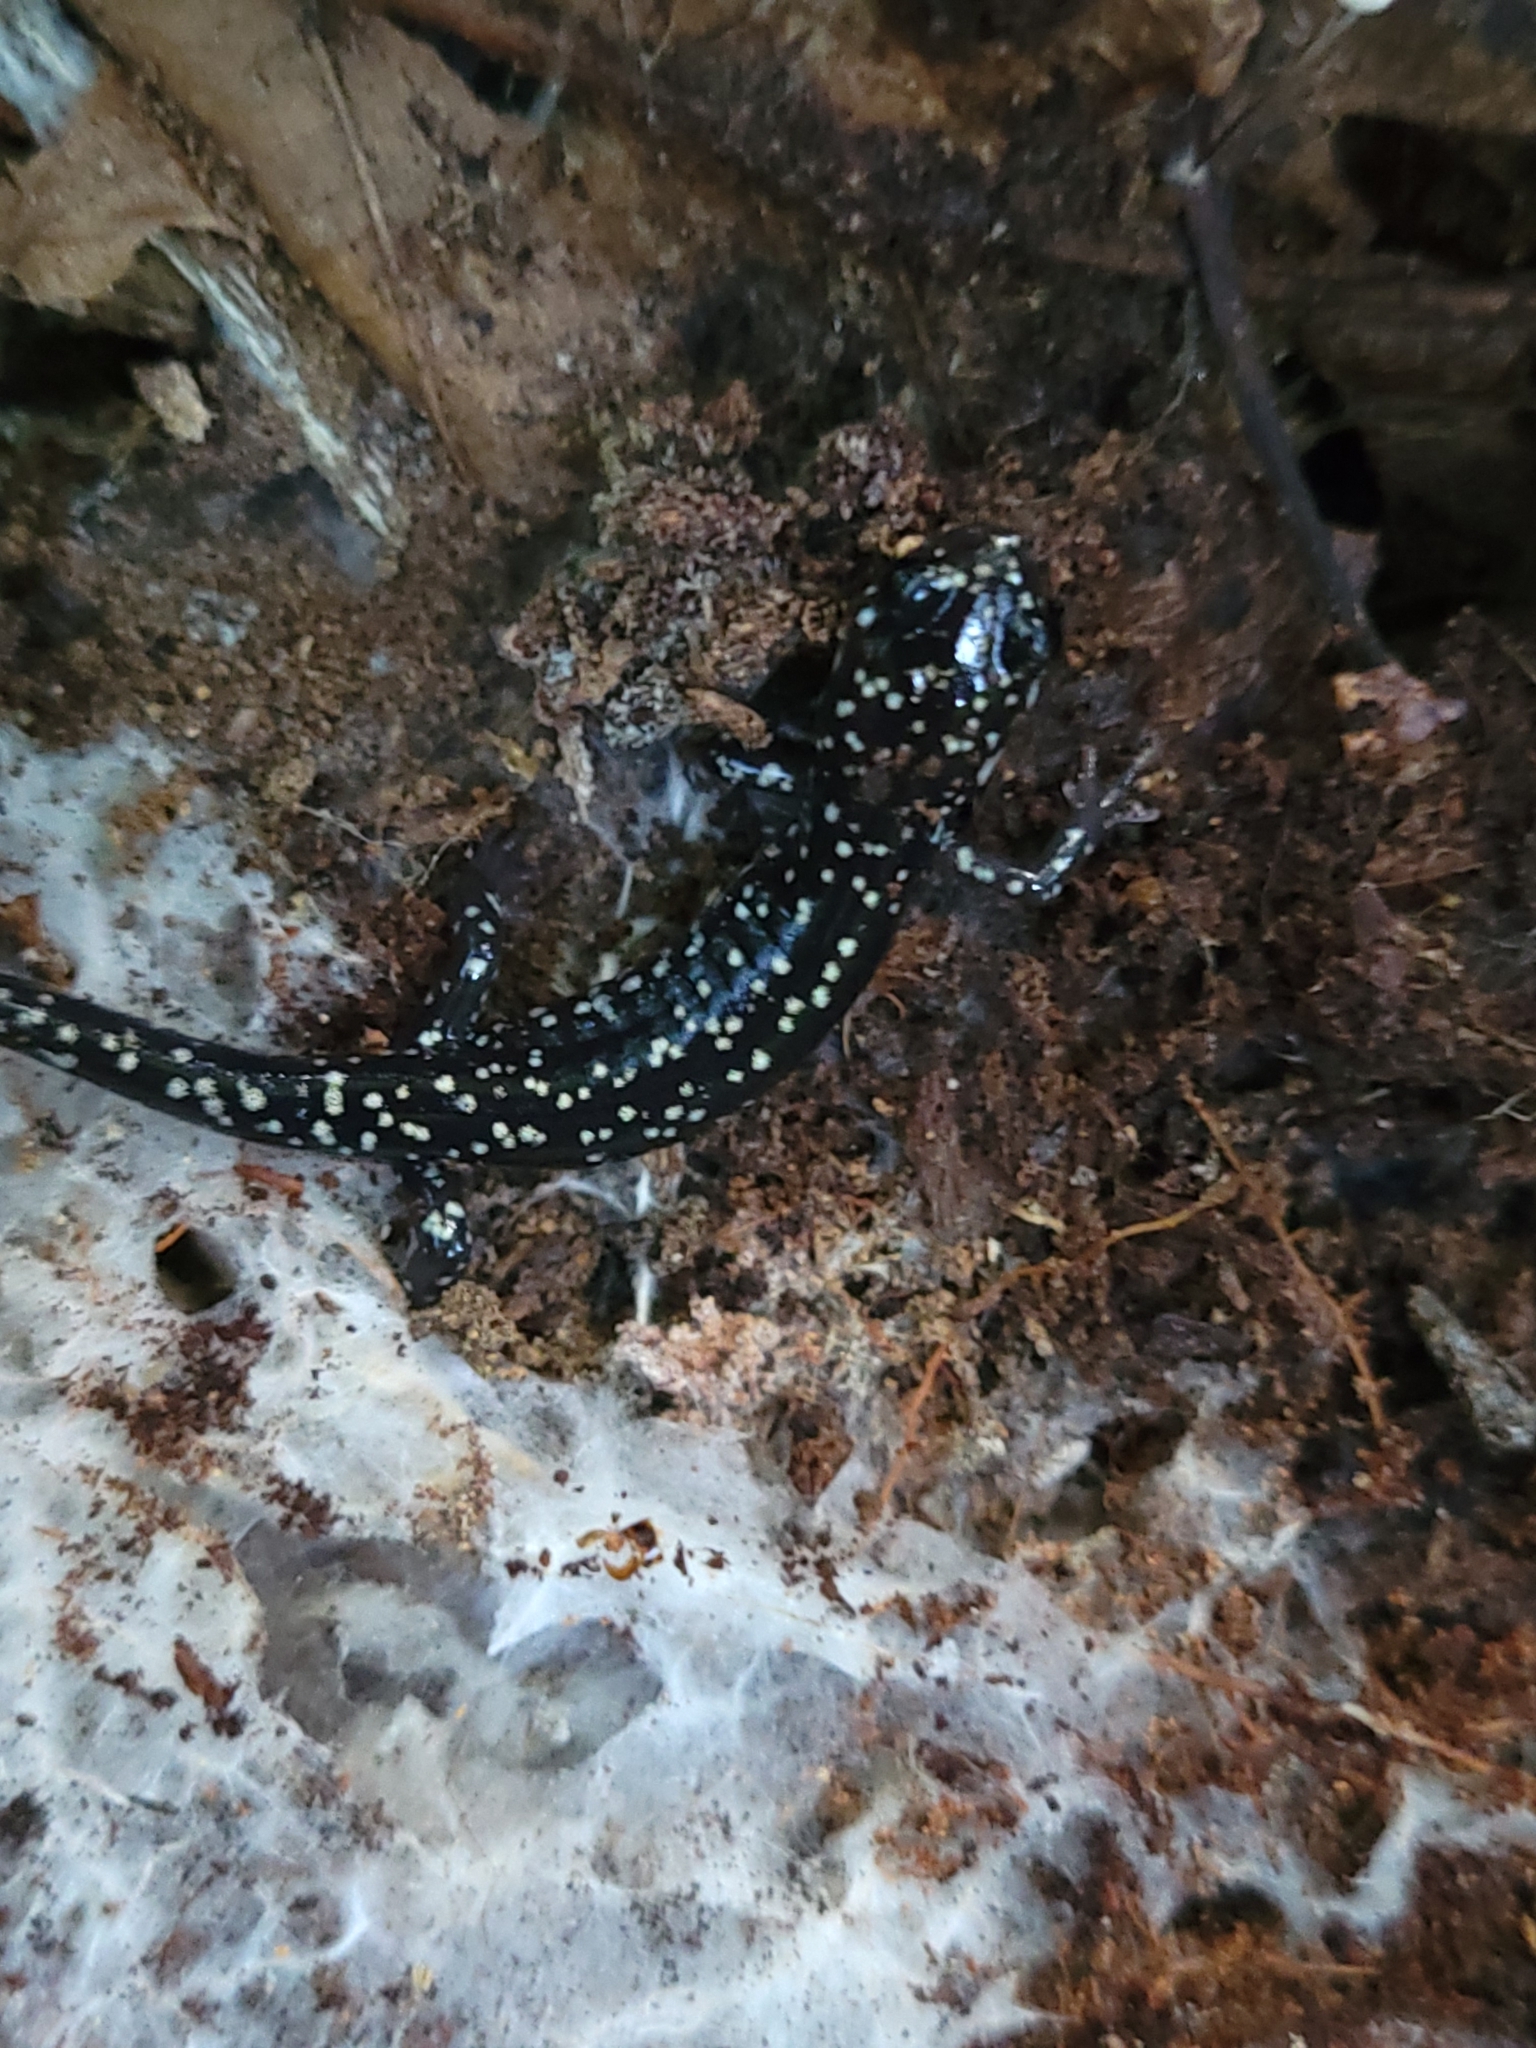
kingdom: Animalia
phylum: Chordata
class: Amphibia
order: Caudata
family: Plethodontidae
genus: Plethodon
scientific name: Plethodon glutinosus
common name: Northern slimy salamander
